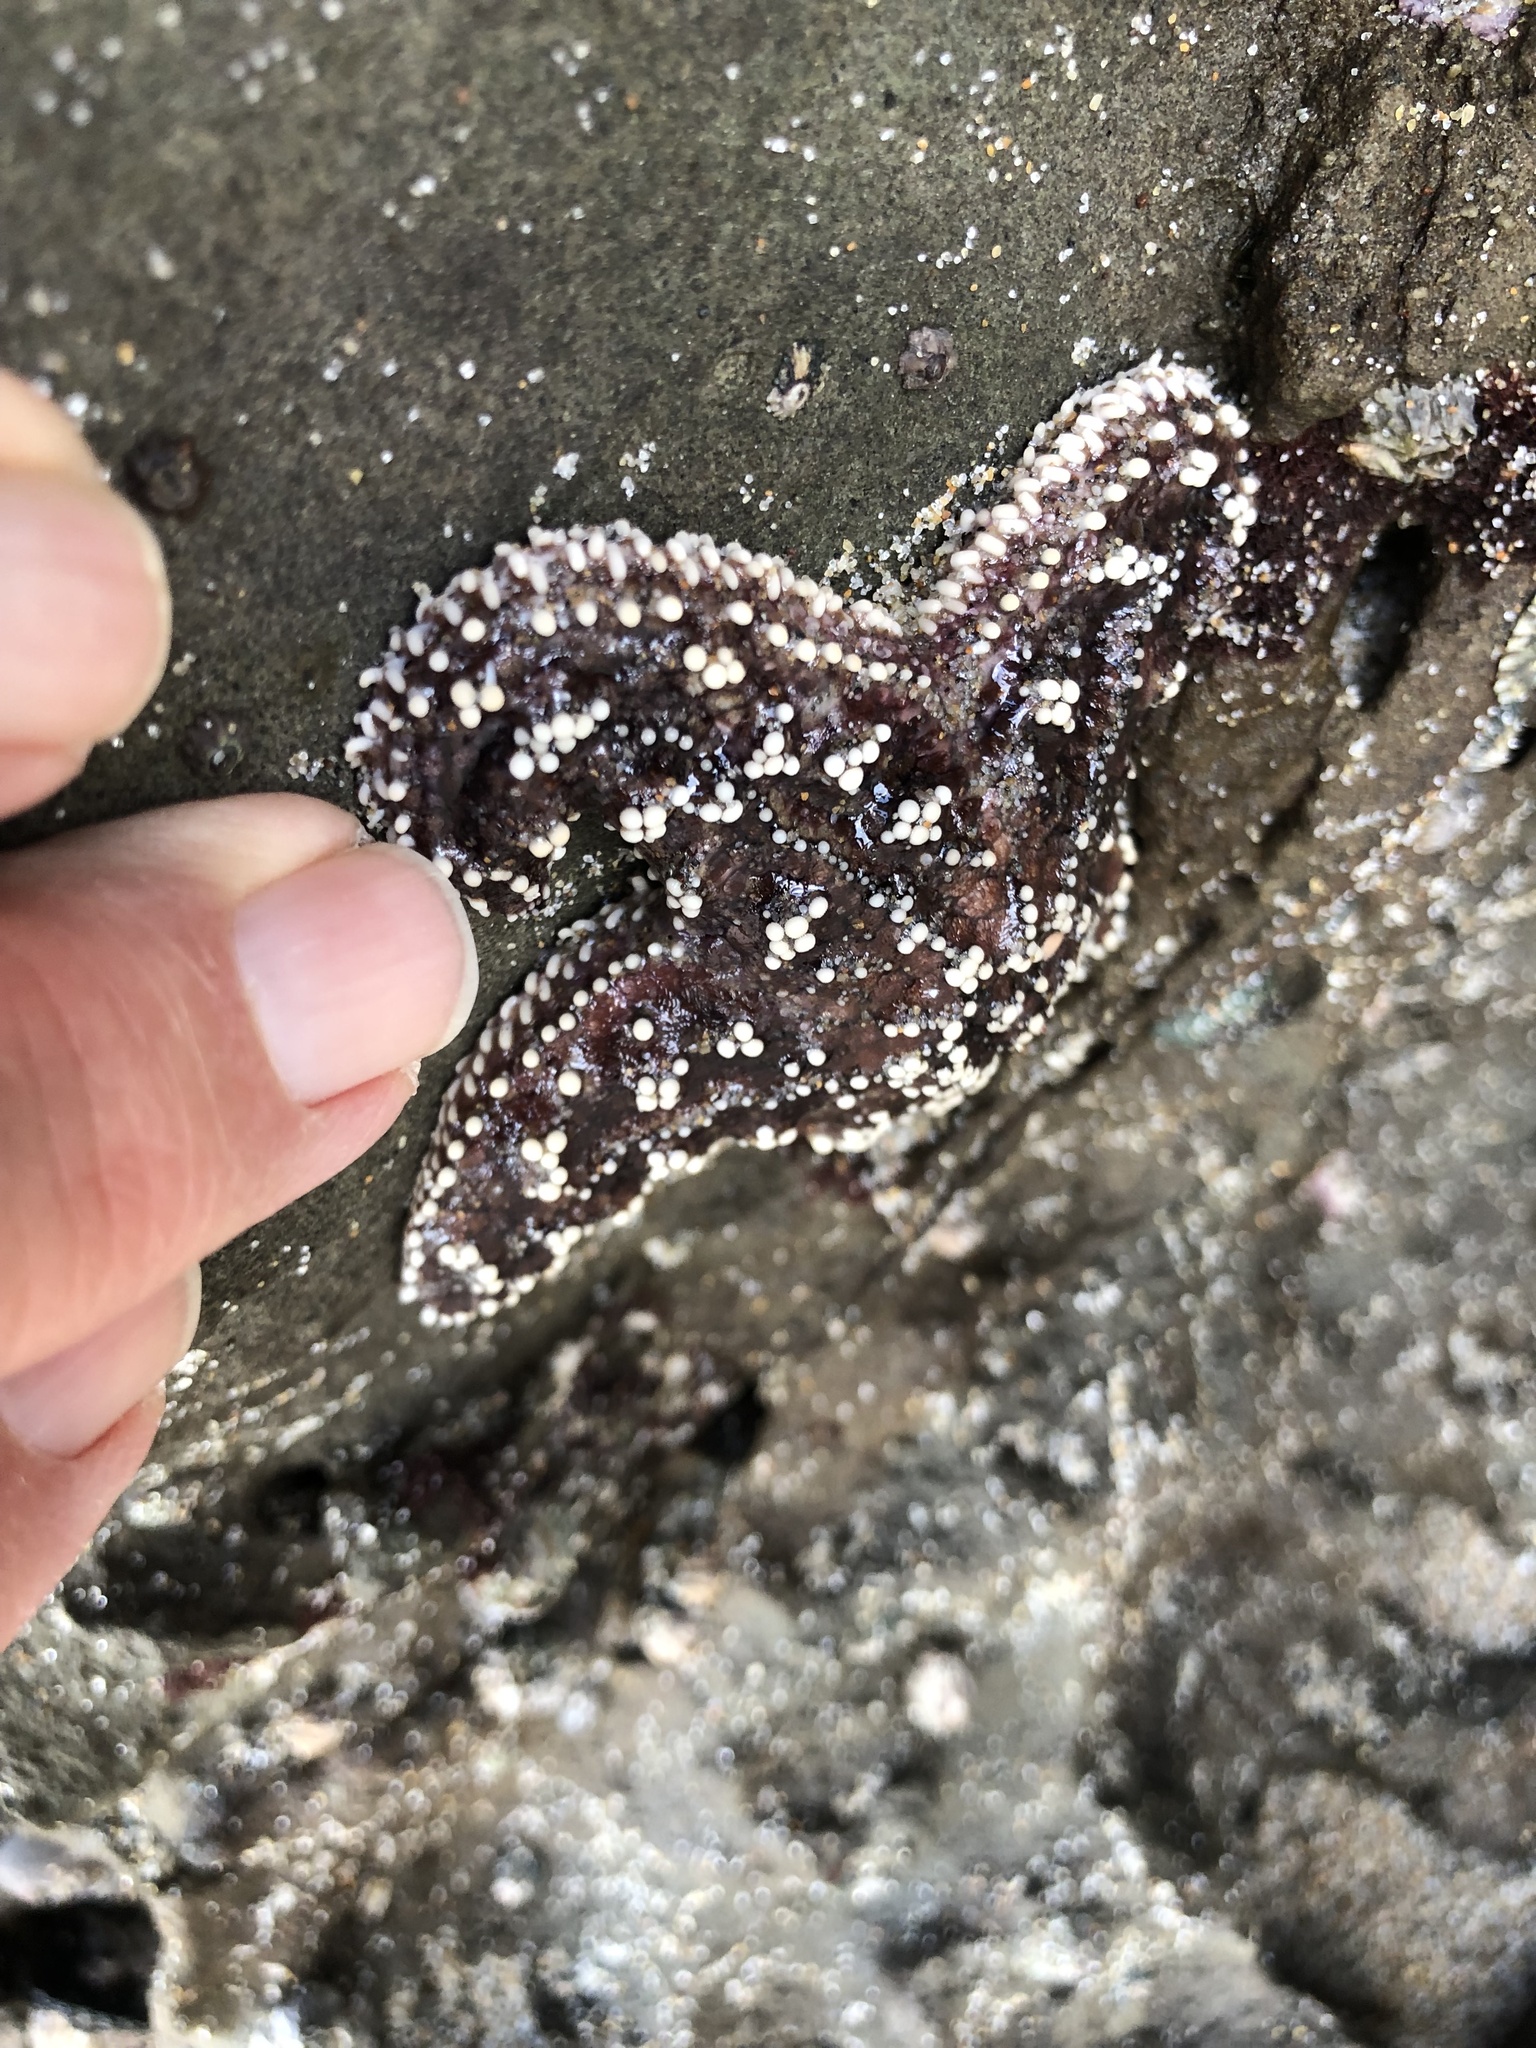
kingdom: Animalia
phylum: Echinodermata
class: Asteroidea
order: Forcipulatida
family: Asteriidae
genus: Pisaster
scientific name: Pisaster ochraceus
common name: Ochre stars
